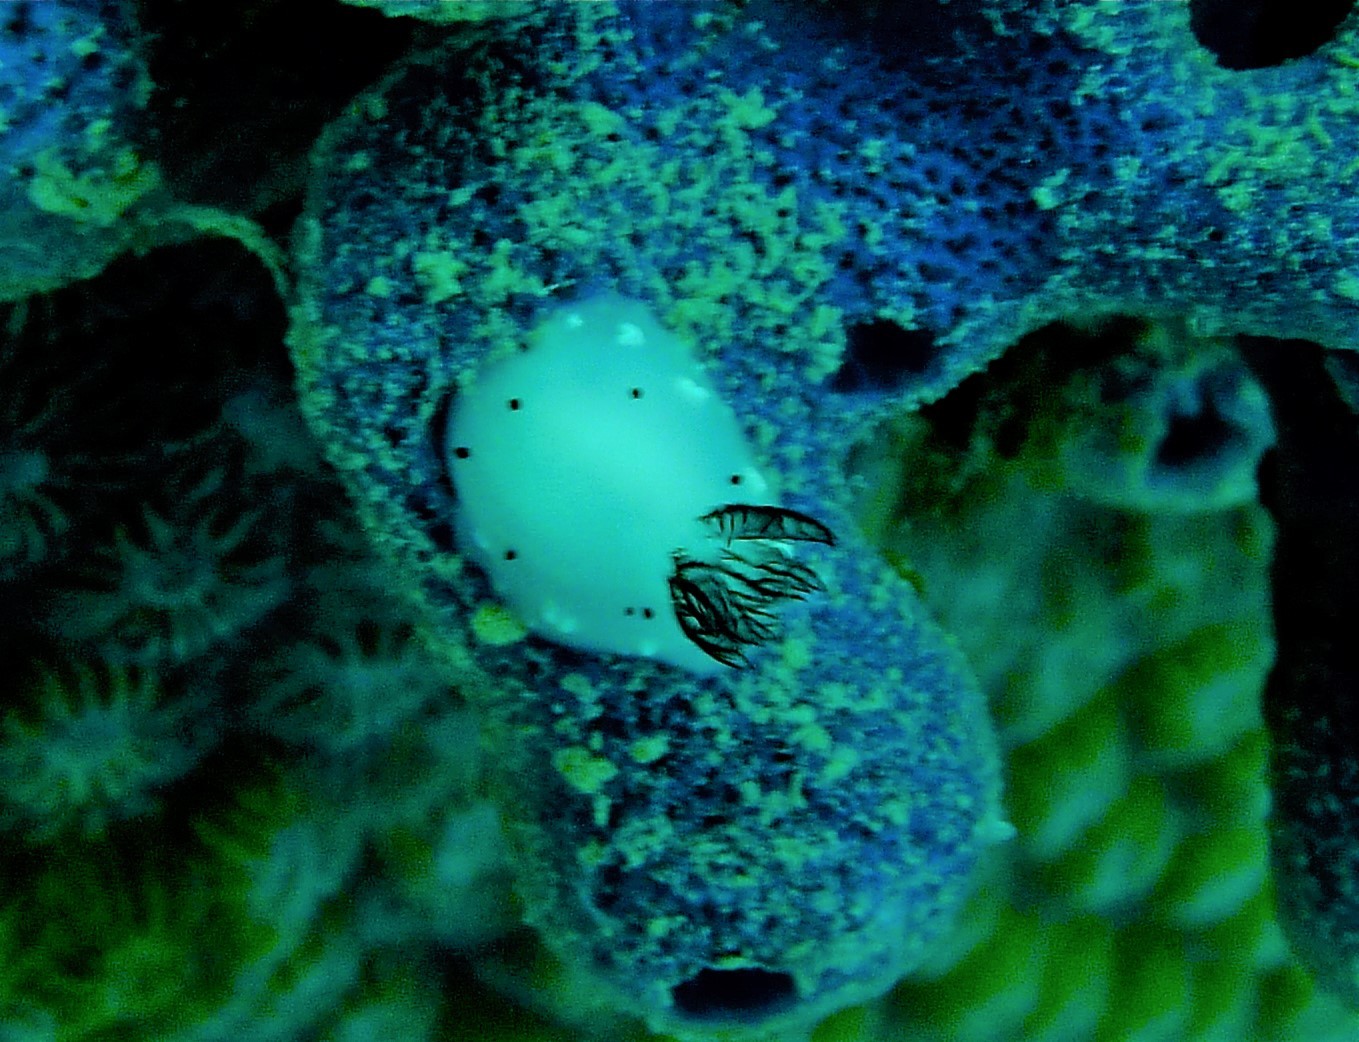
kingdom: Animalia
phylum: Mollusca
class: Gastropoda
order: Nudibranchia
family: Discodorididae
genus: Jorunna
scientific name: Jorunna funebris
